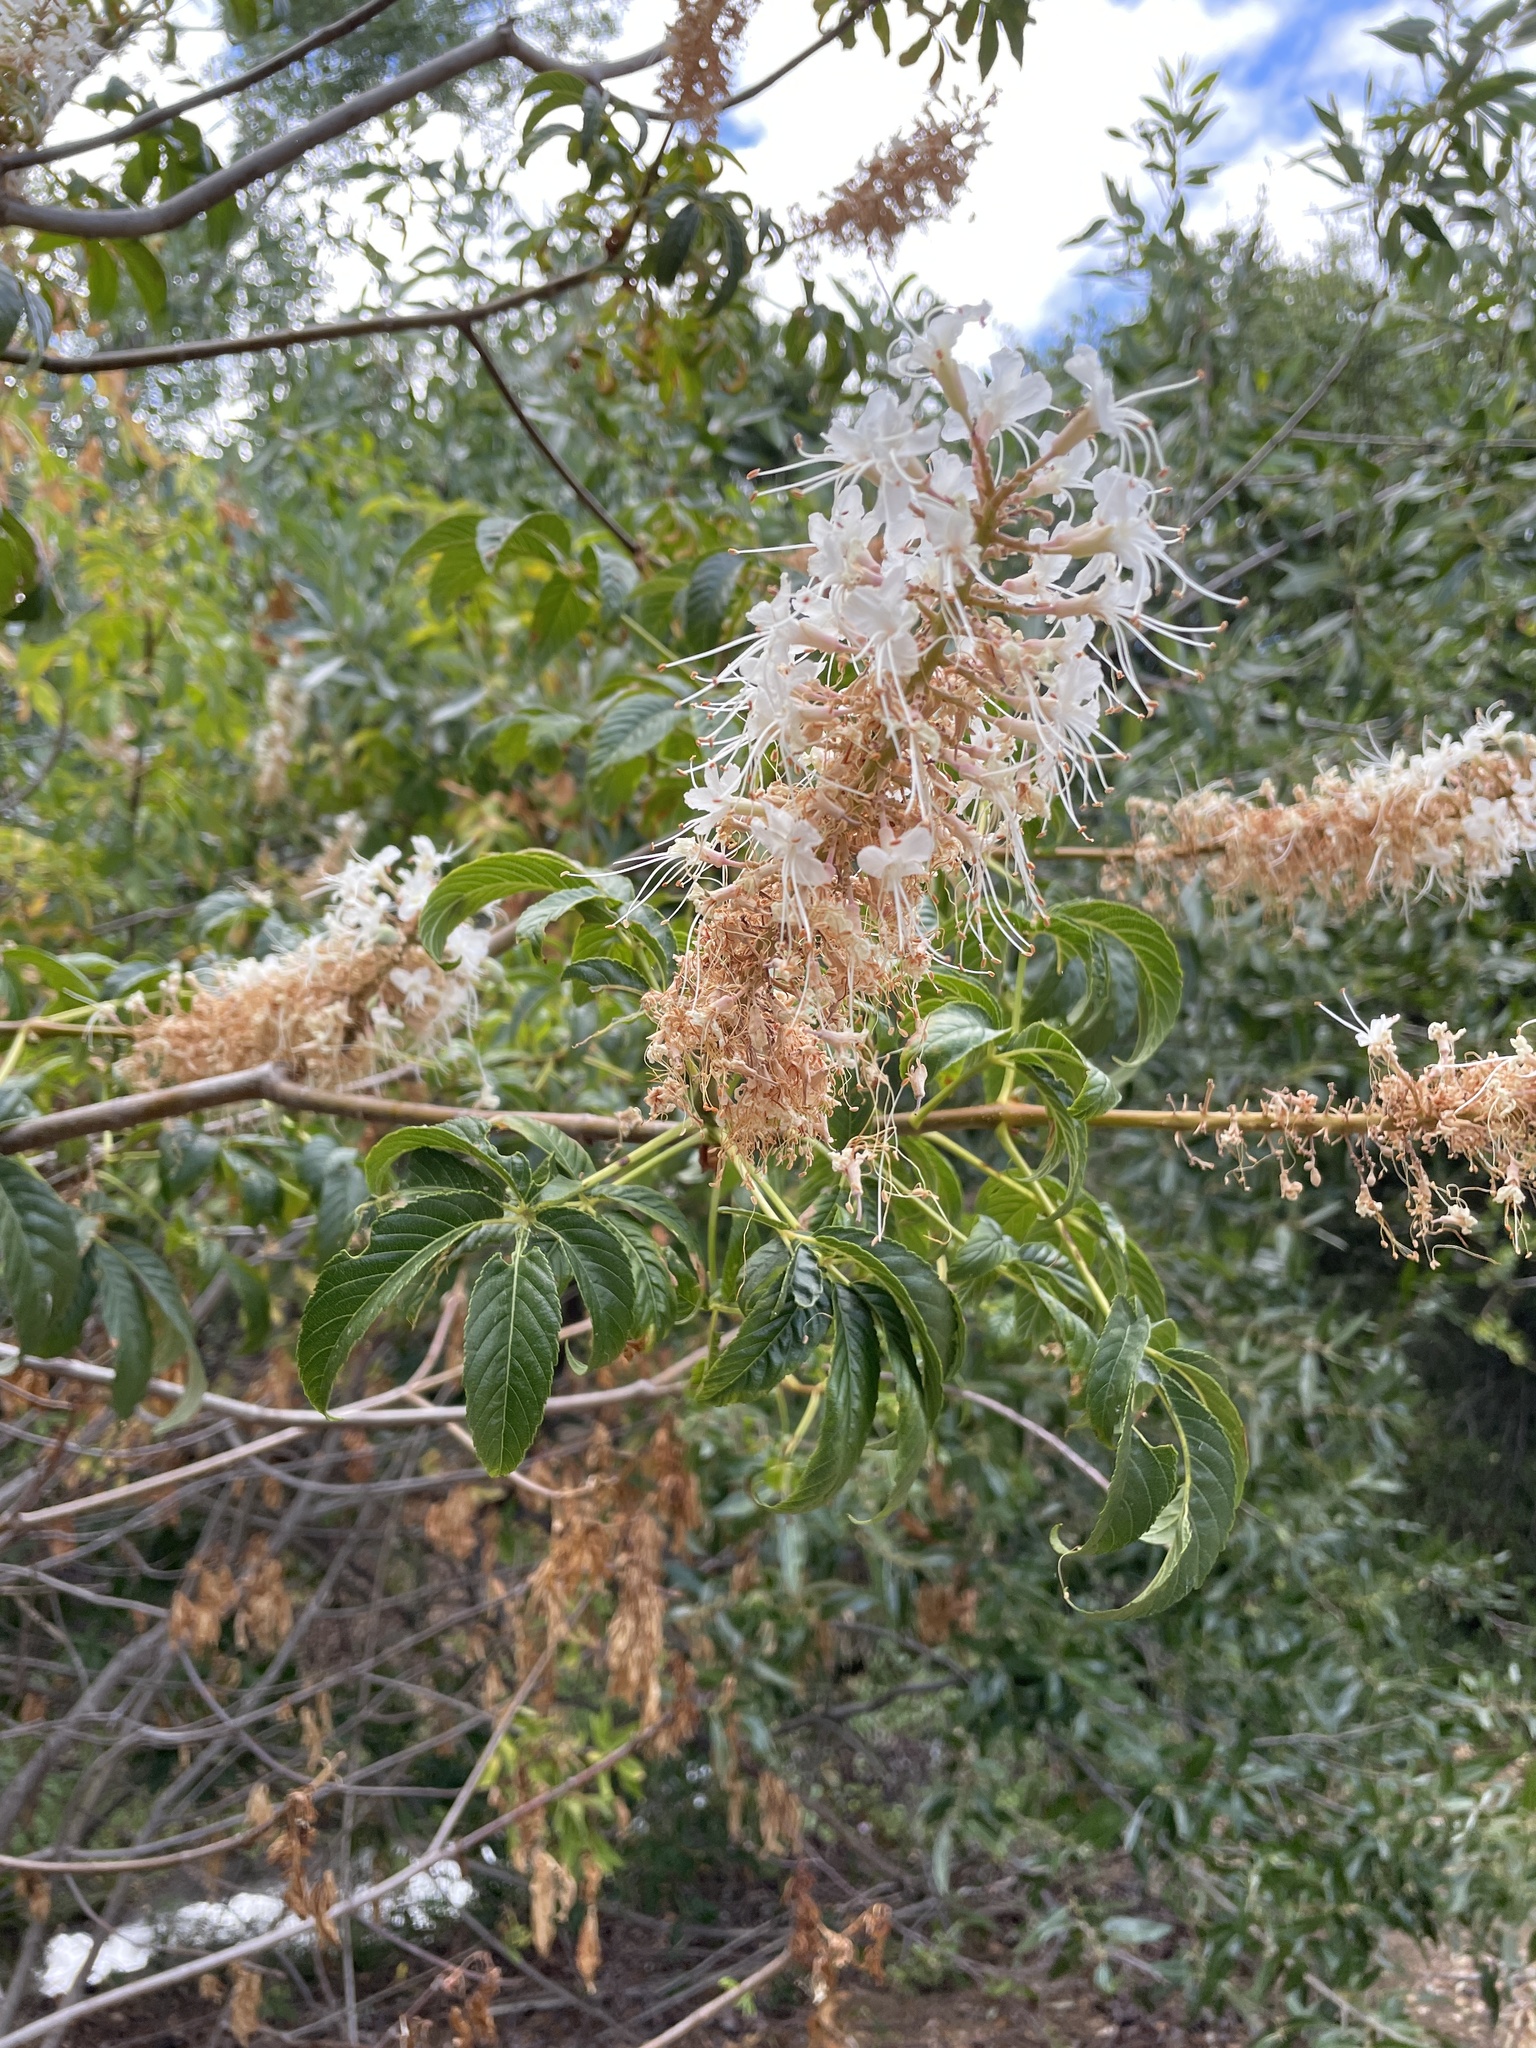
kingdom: Plantae
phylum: Tracheophyta
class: Magnoliopsida
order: Sapindales
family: Sapindaceae
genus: Aesculus
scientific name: Aesculus californica
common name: California buckeye
